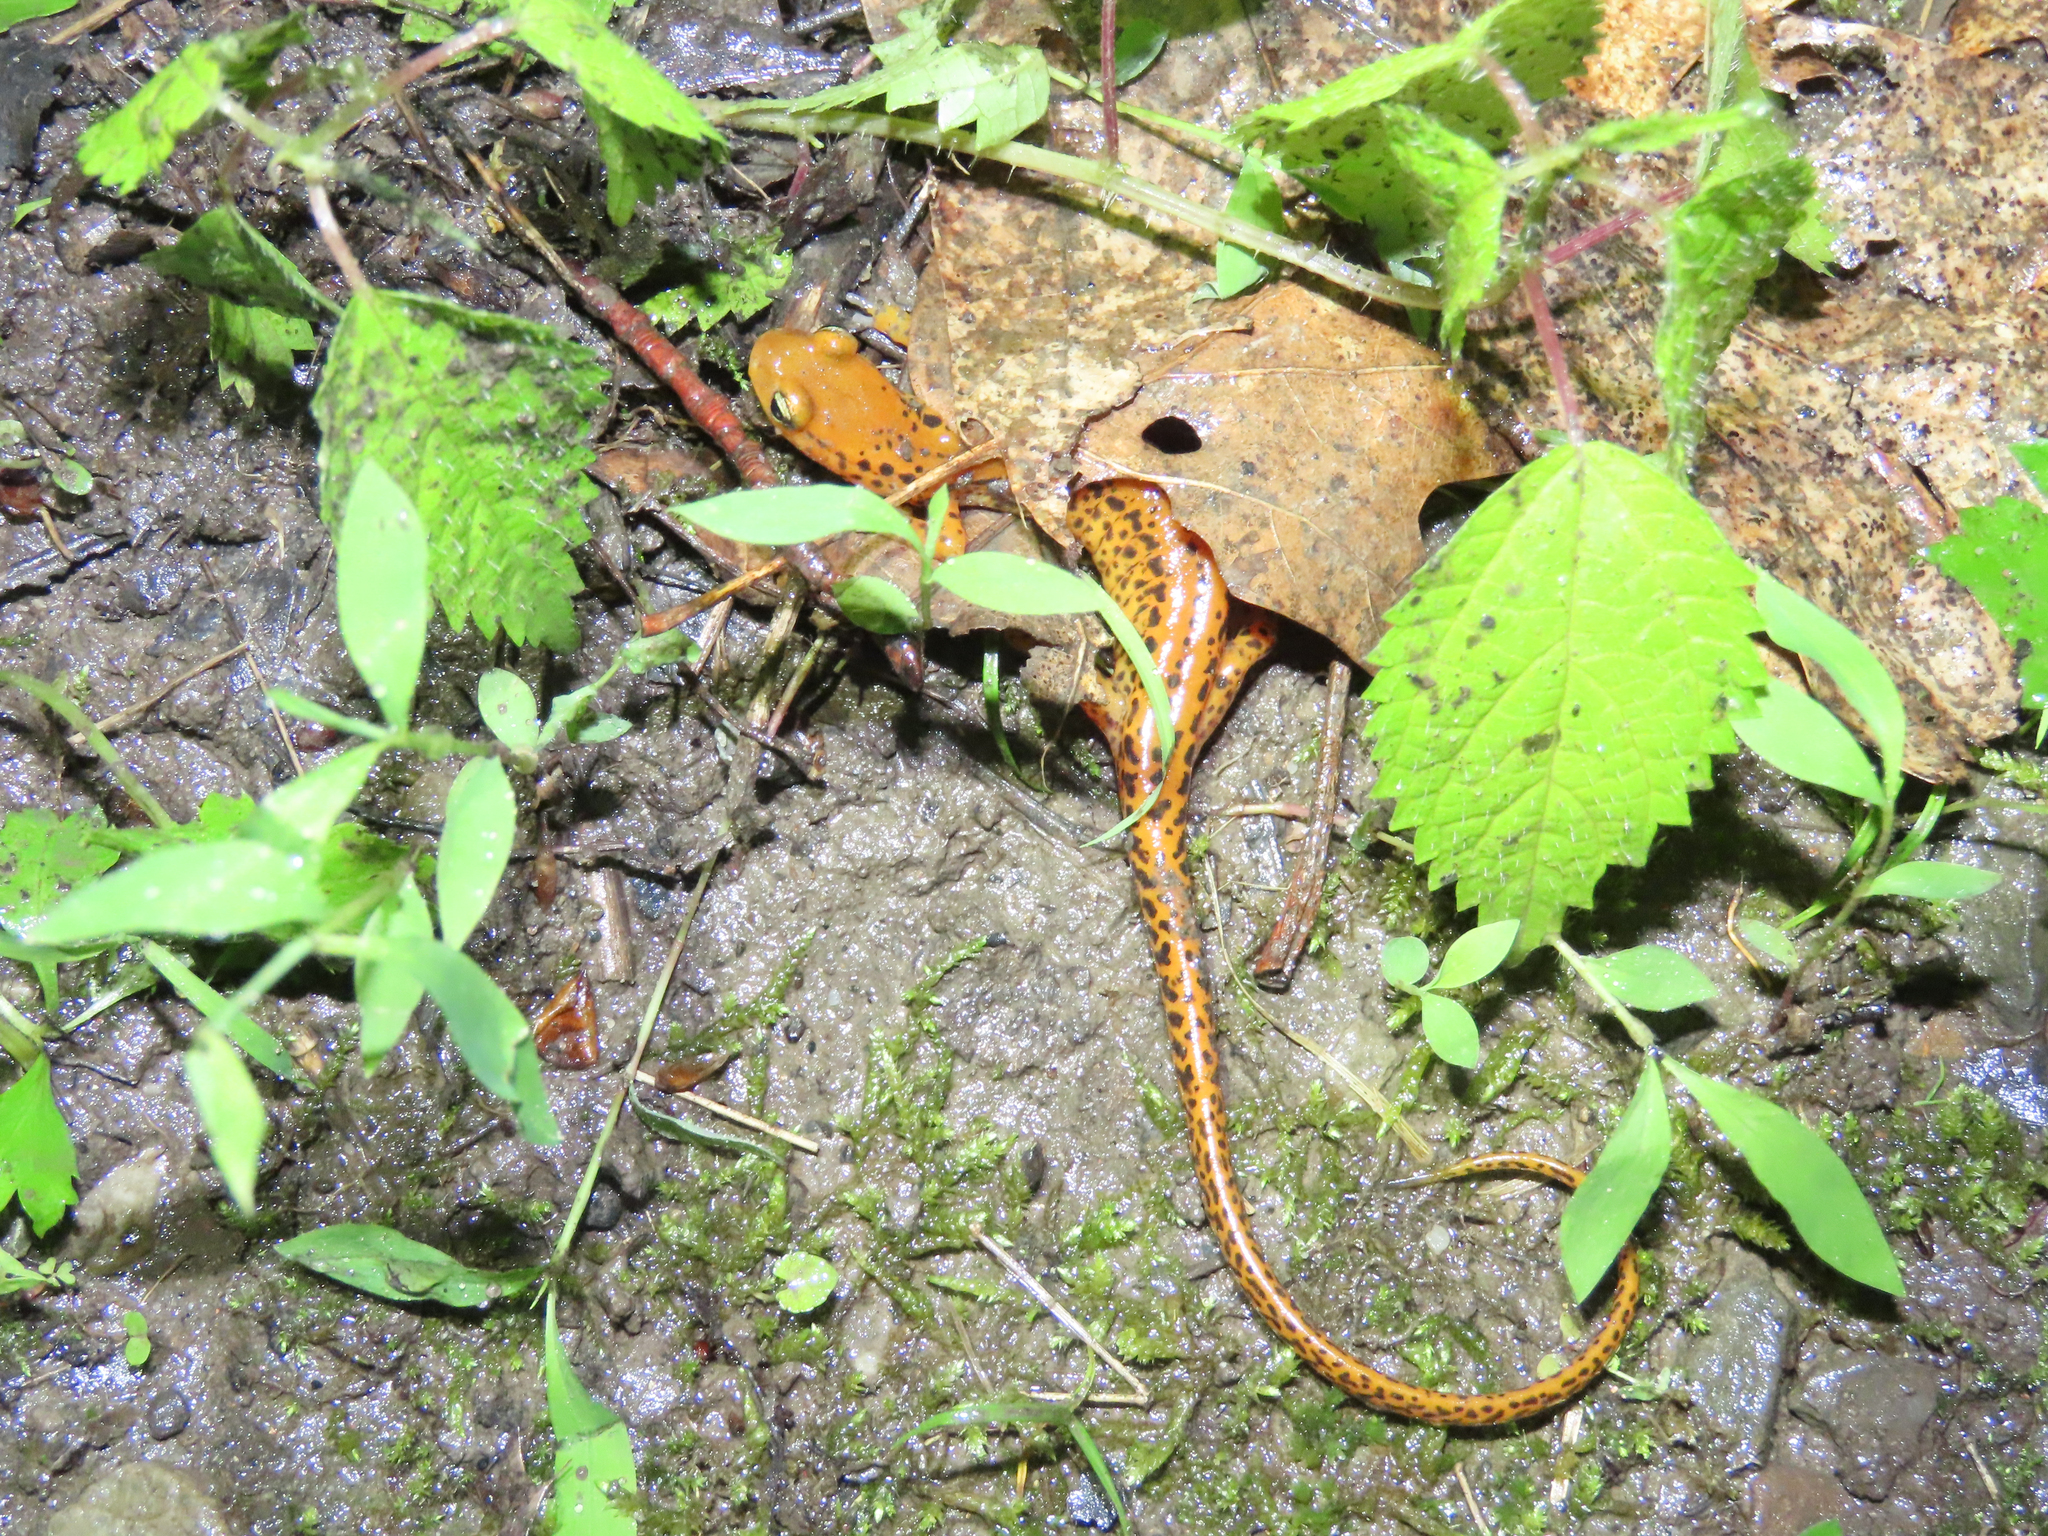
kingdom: Animalia
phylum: Chordata
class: Amphibia
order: Caudata
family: Plethodontidae
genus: Eurycea
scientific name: Eurycea longicauda
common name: Long-tailed salamander
